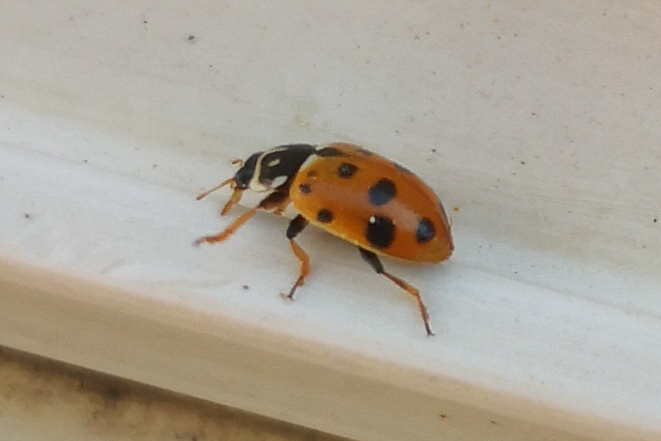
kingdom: Animalia
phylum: Arthropoda
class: Insecta
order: Coleoptera
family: Coccinellidae
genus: Hippodamia
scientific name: Hippodamia variegata
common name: Ladybird beetle
